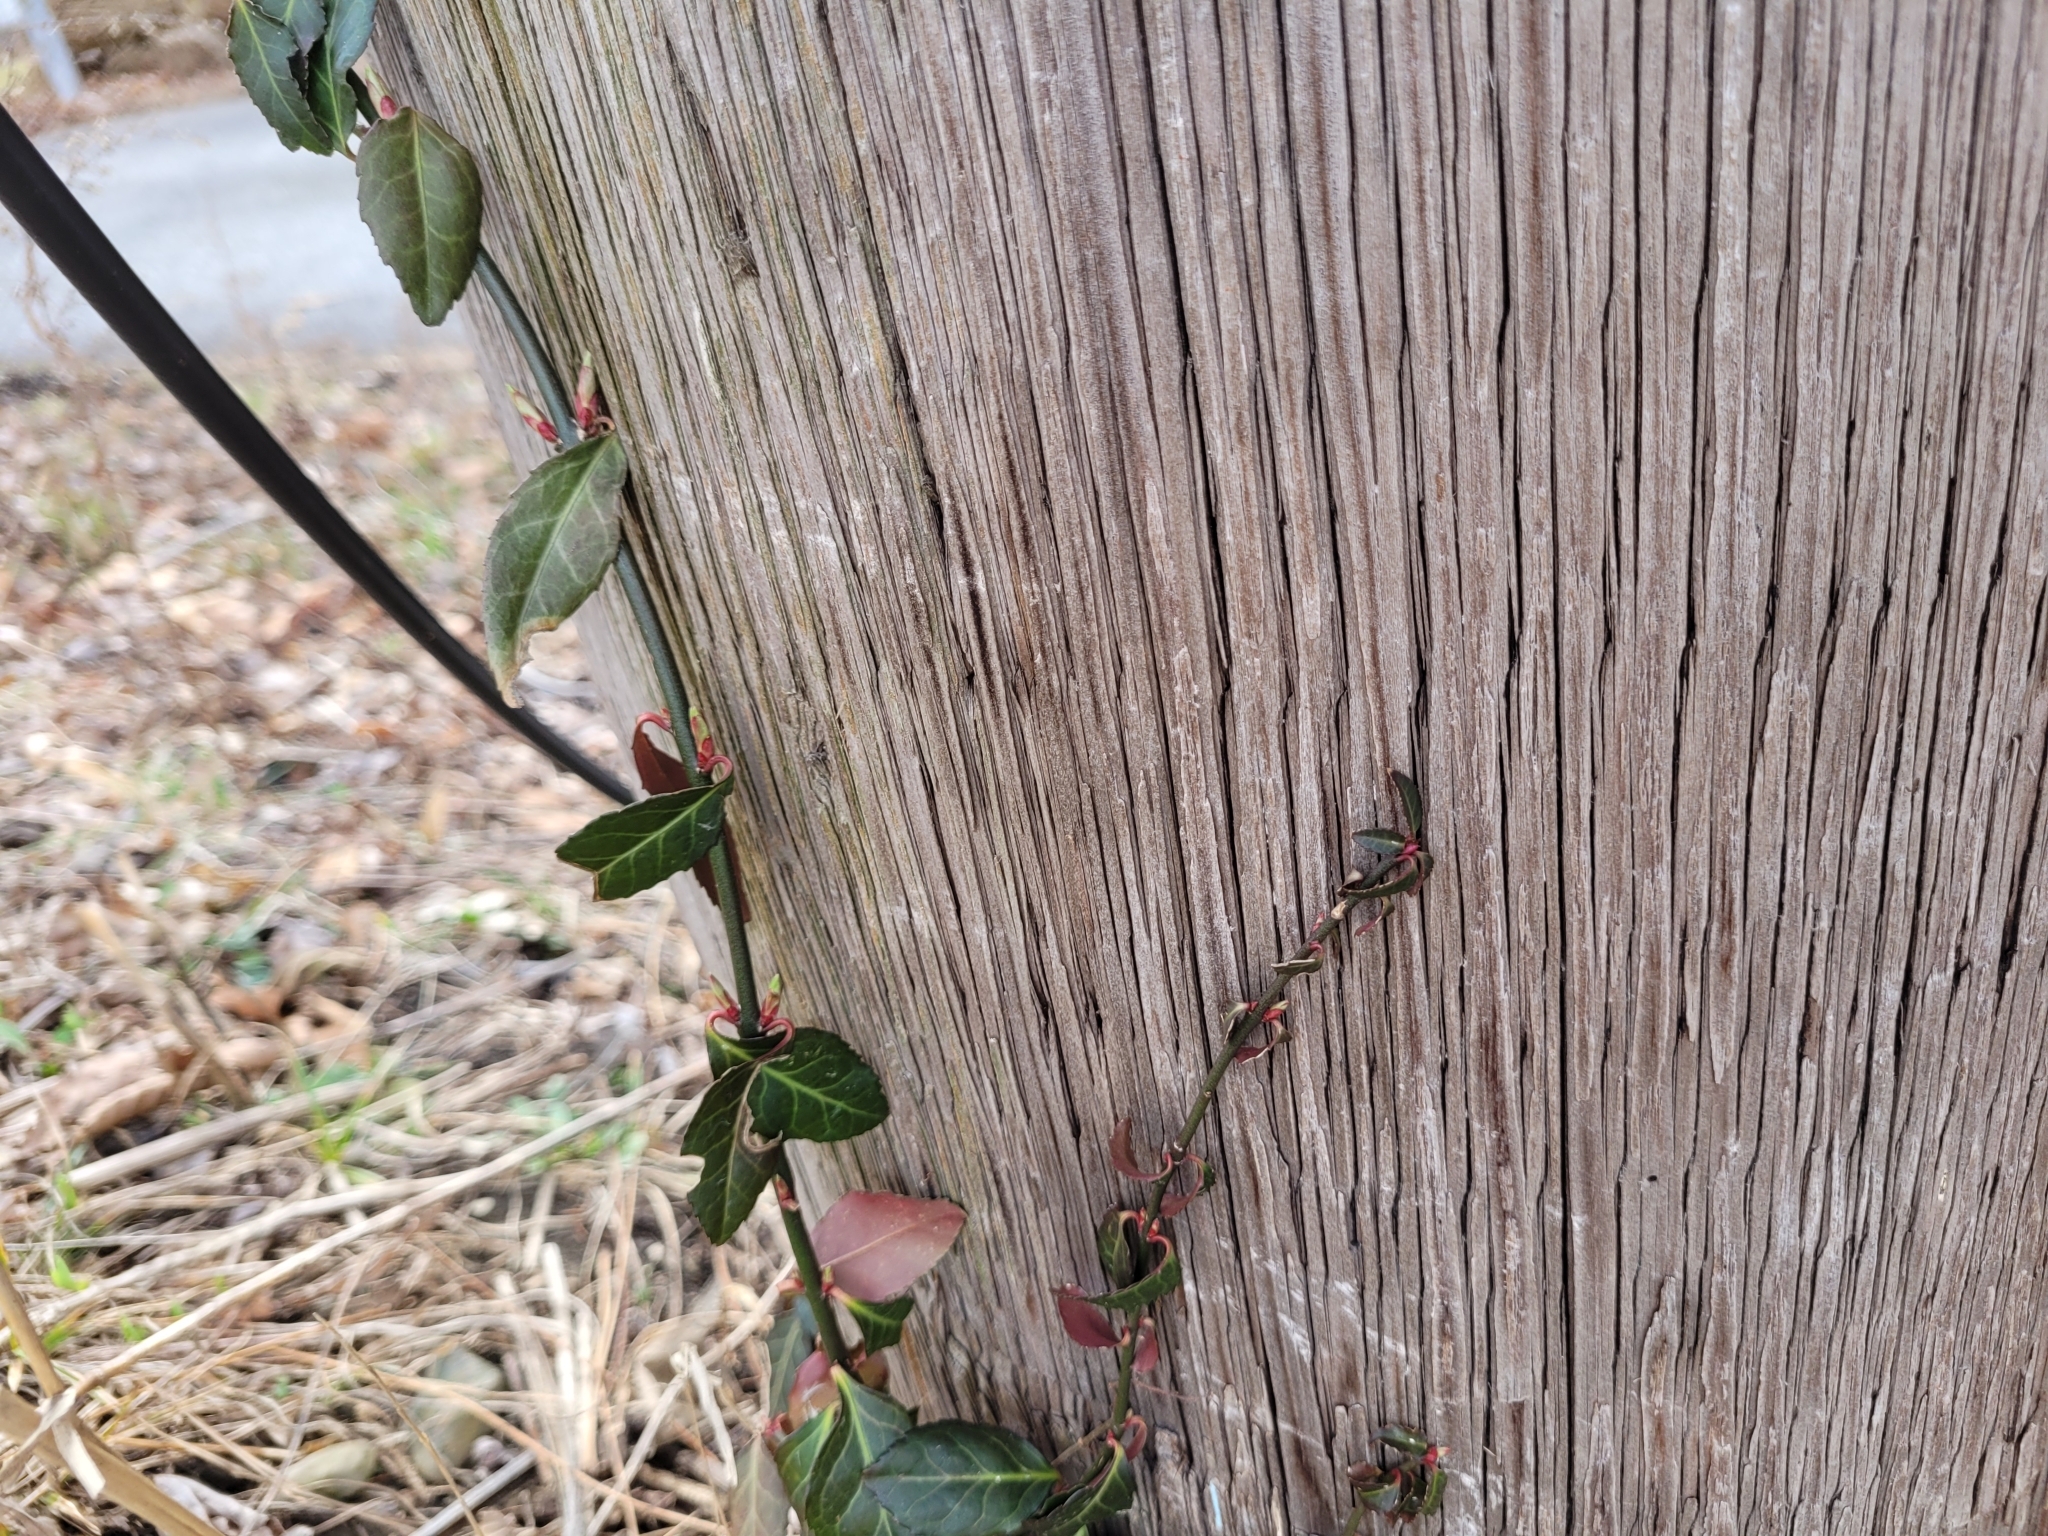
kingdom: Plantae
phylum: Tracheophyta
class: Magnoliopsida
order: Celastrales
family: Celastraceae
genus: Euonymus
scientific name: Euonymus fortunei
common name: Climbing euonymus
